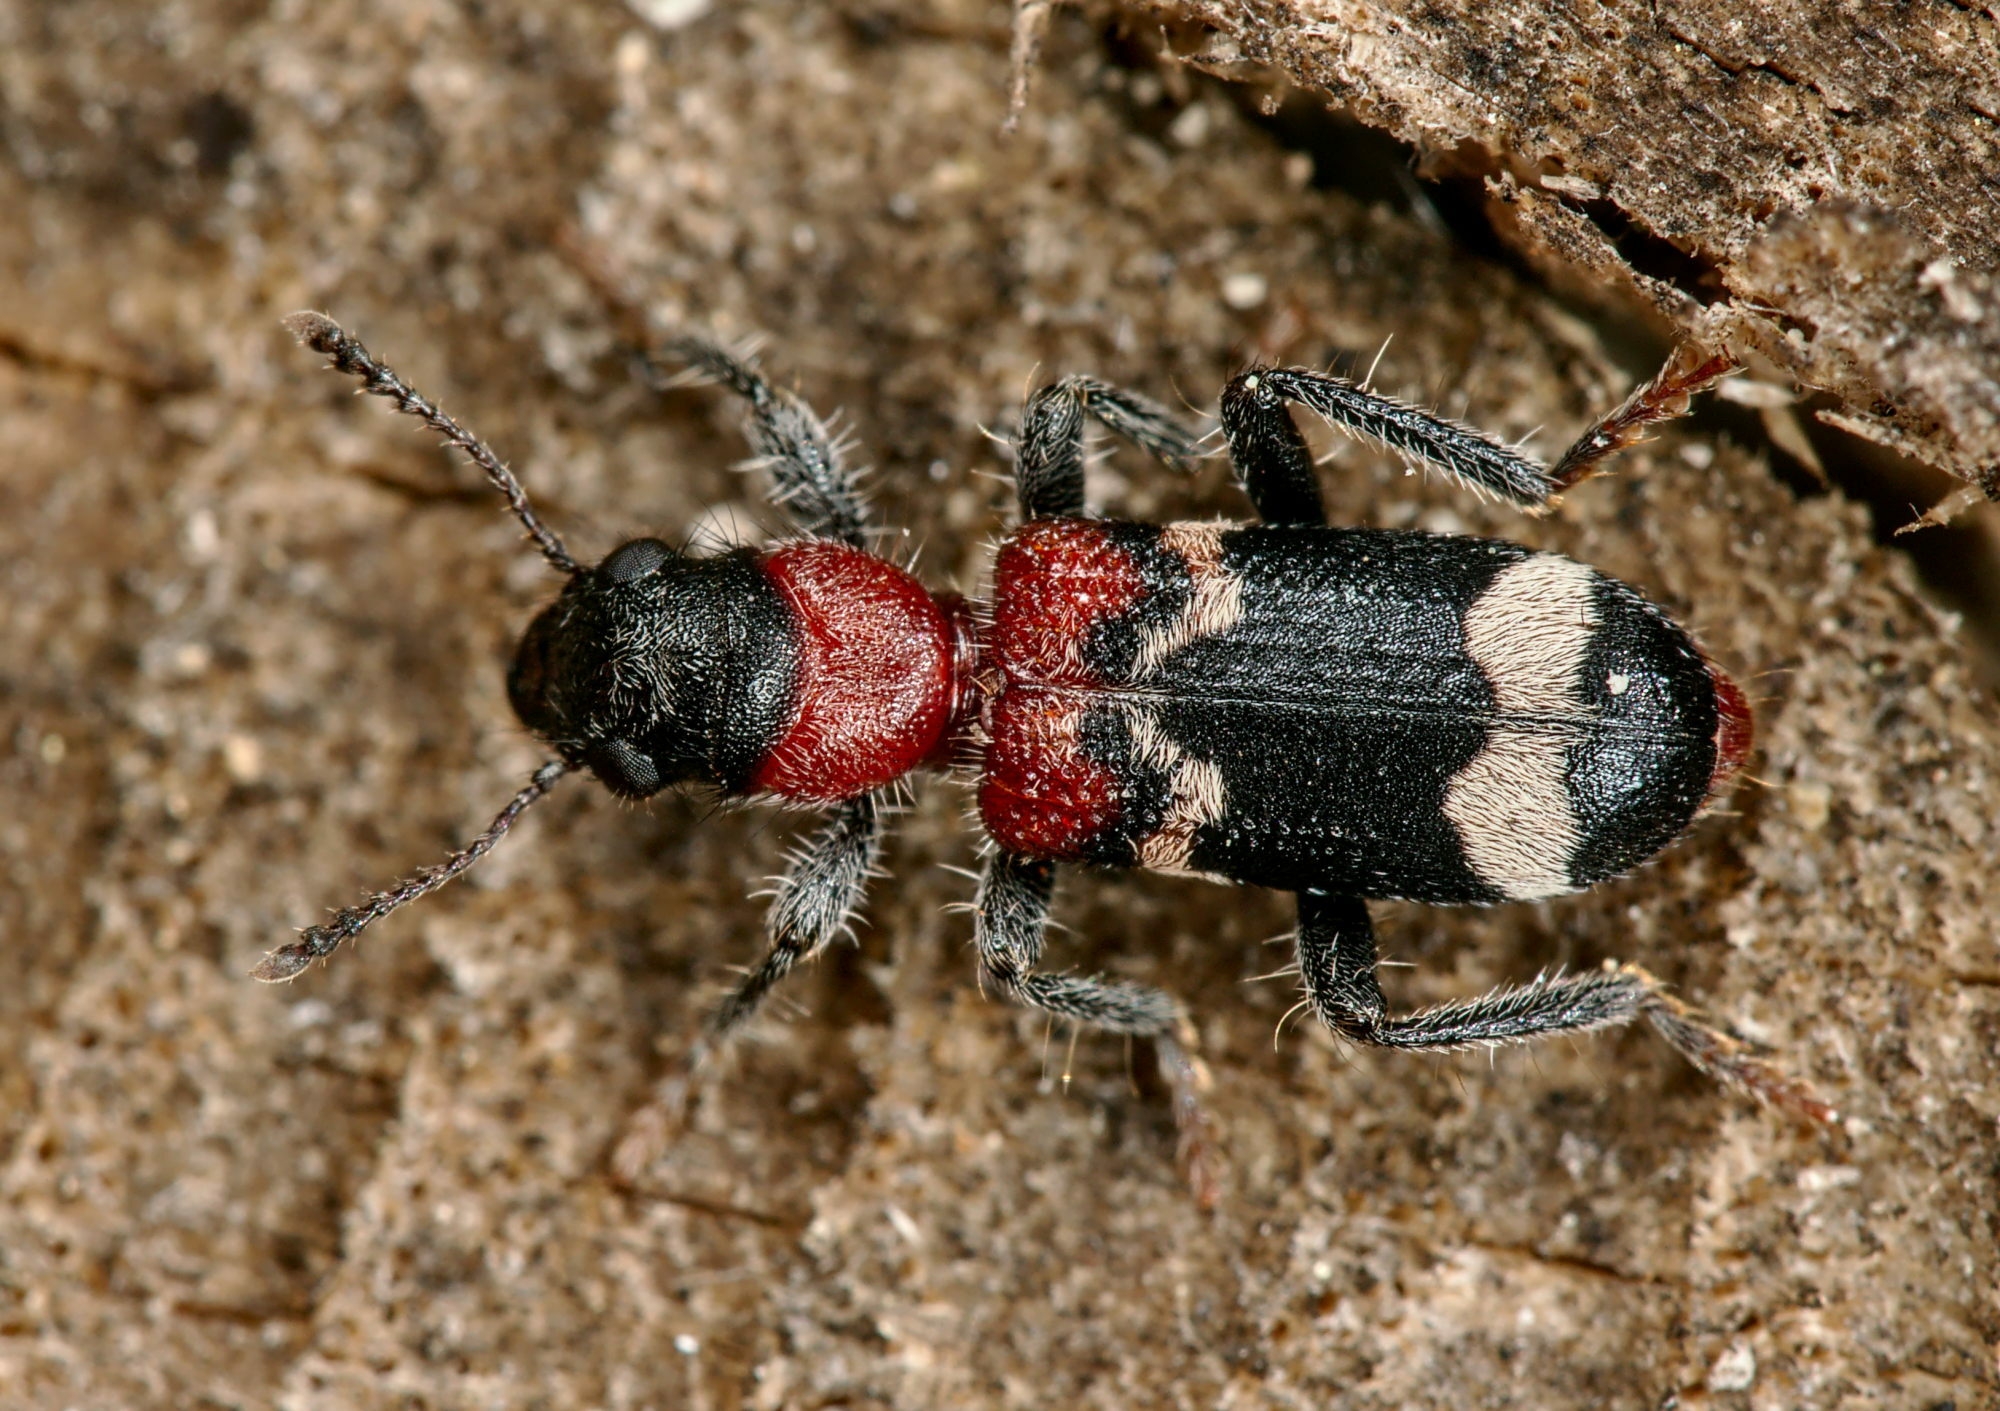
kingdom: Animalia
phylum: Arthropoda
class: Insecta
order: Coleoptera
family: Cleridae
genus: Thanasimus
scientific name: Thanasimus formicarius
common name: Ant beetle
